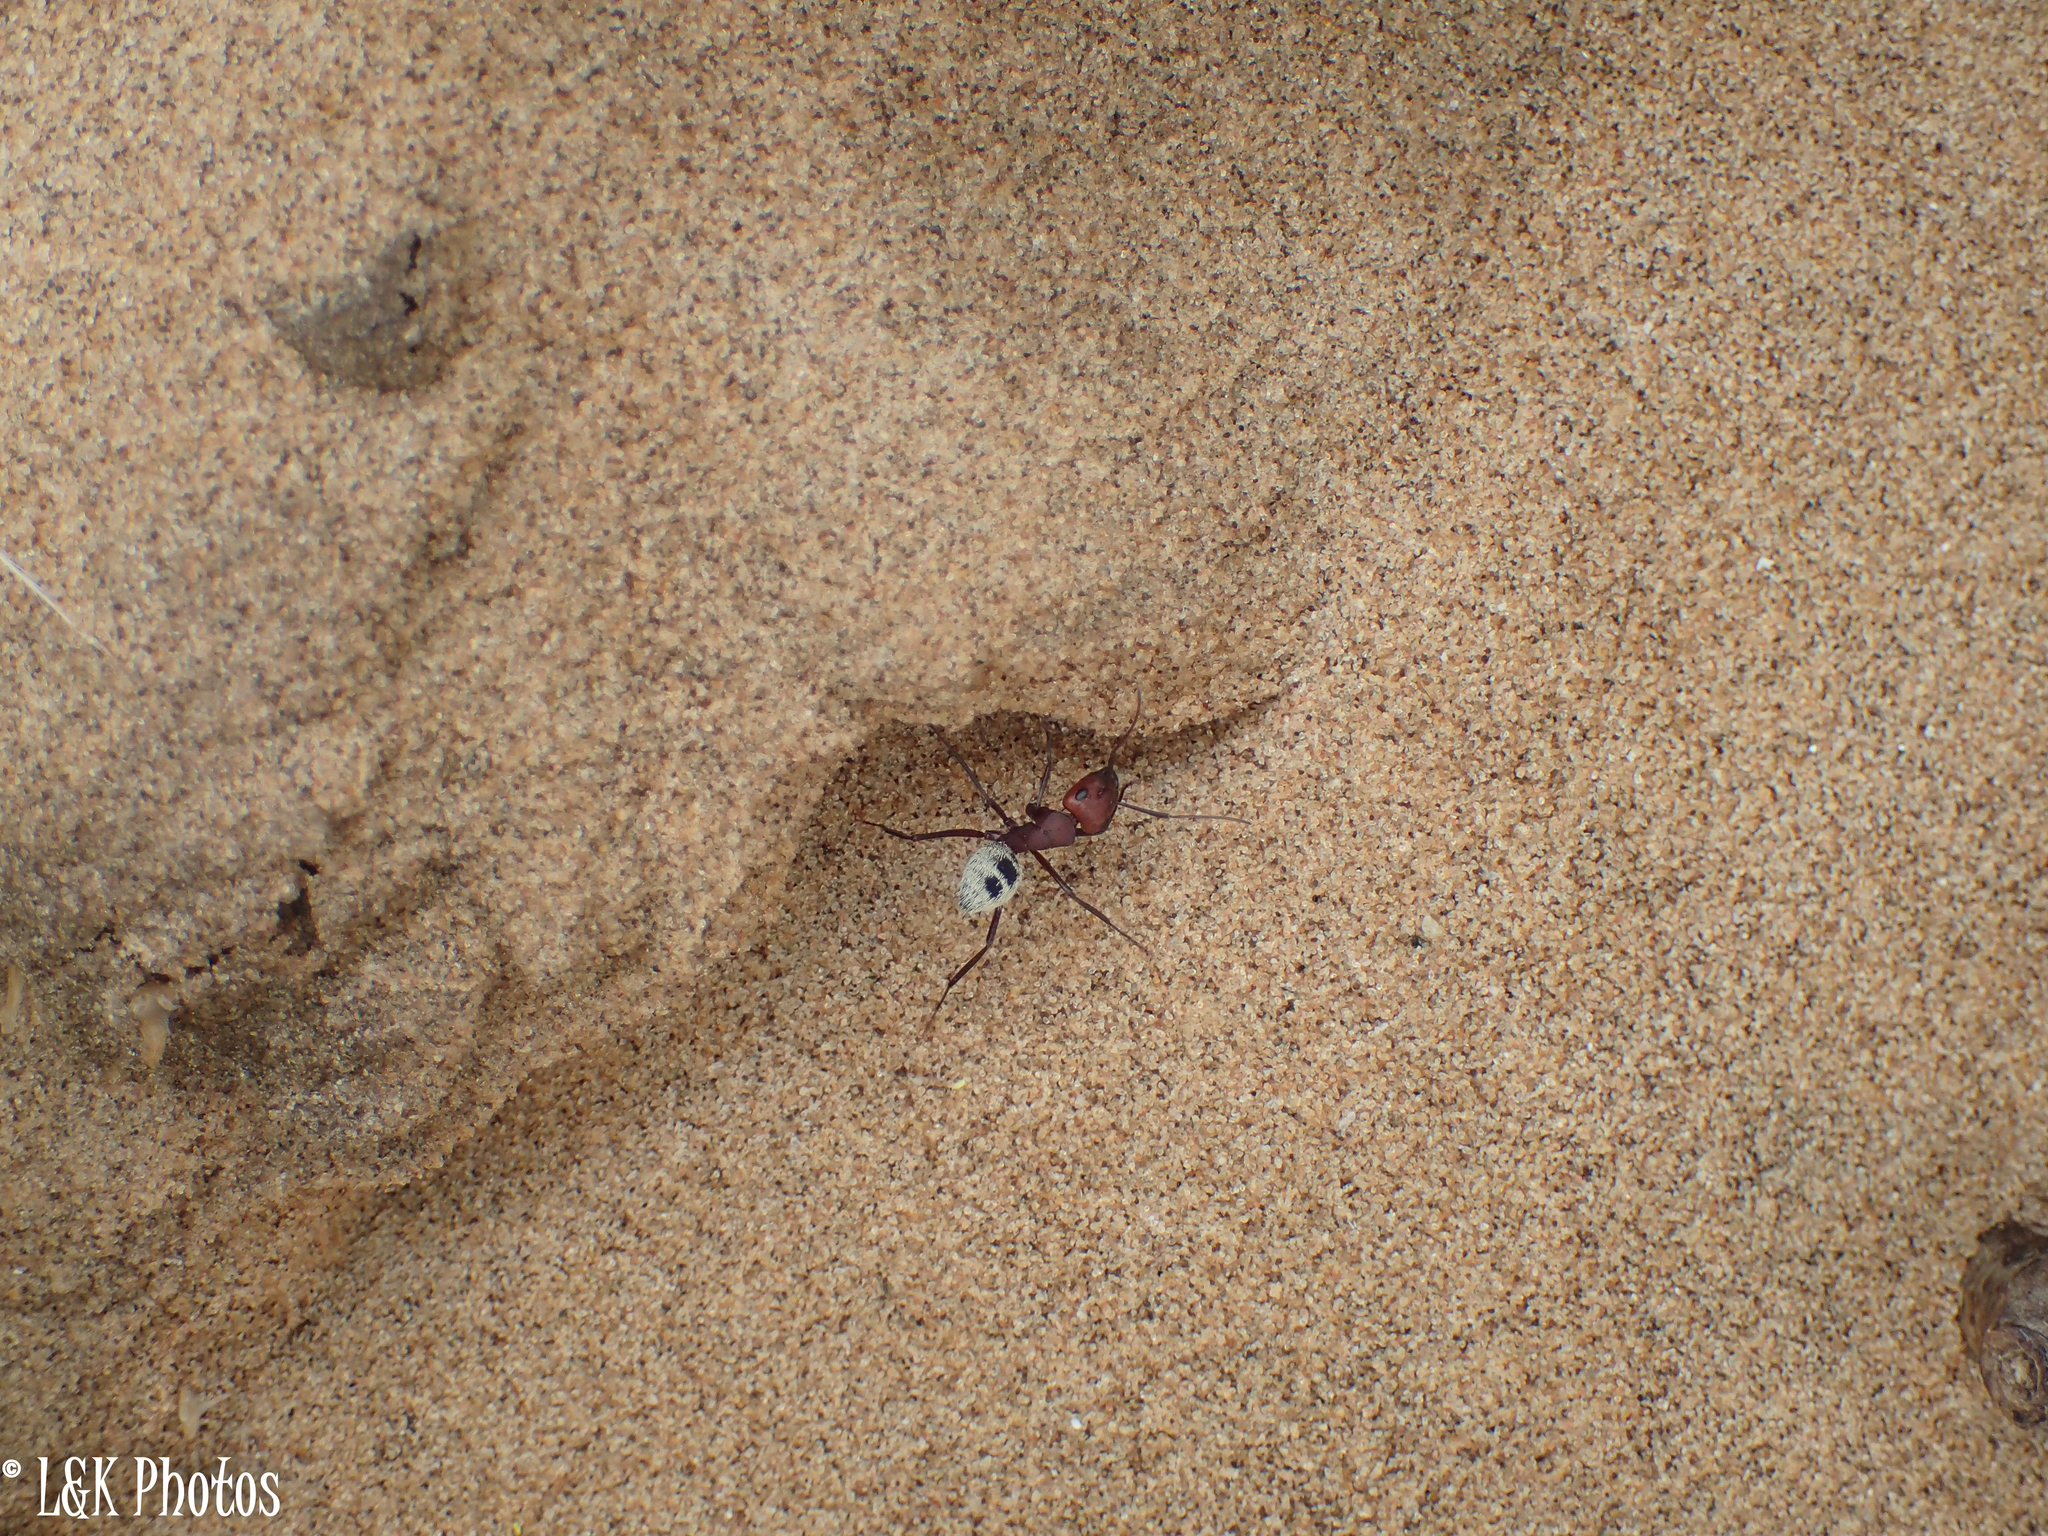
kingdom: Animalia
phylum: Arthropoda
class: Insecta
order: Hymenoptera
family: Formicidae
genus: Camponotus
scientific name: Camponotus detritus
